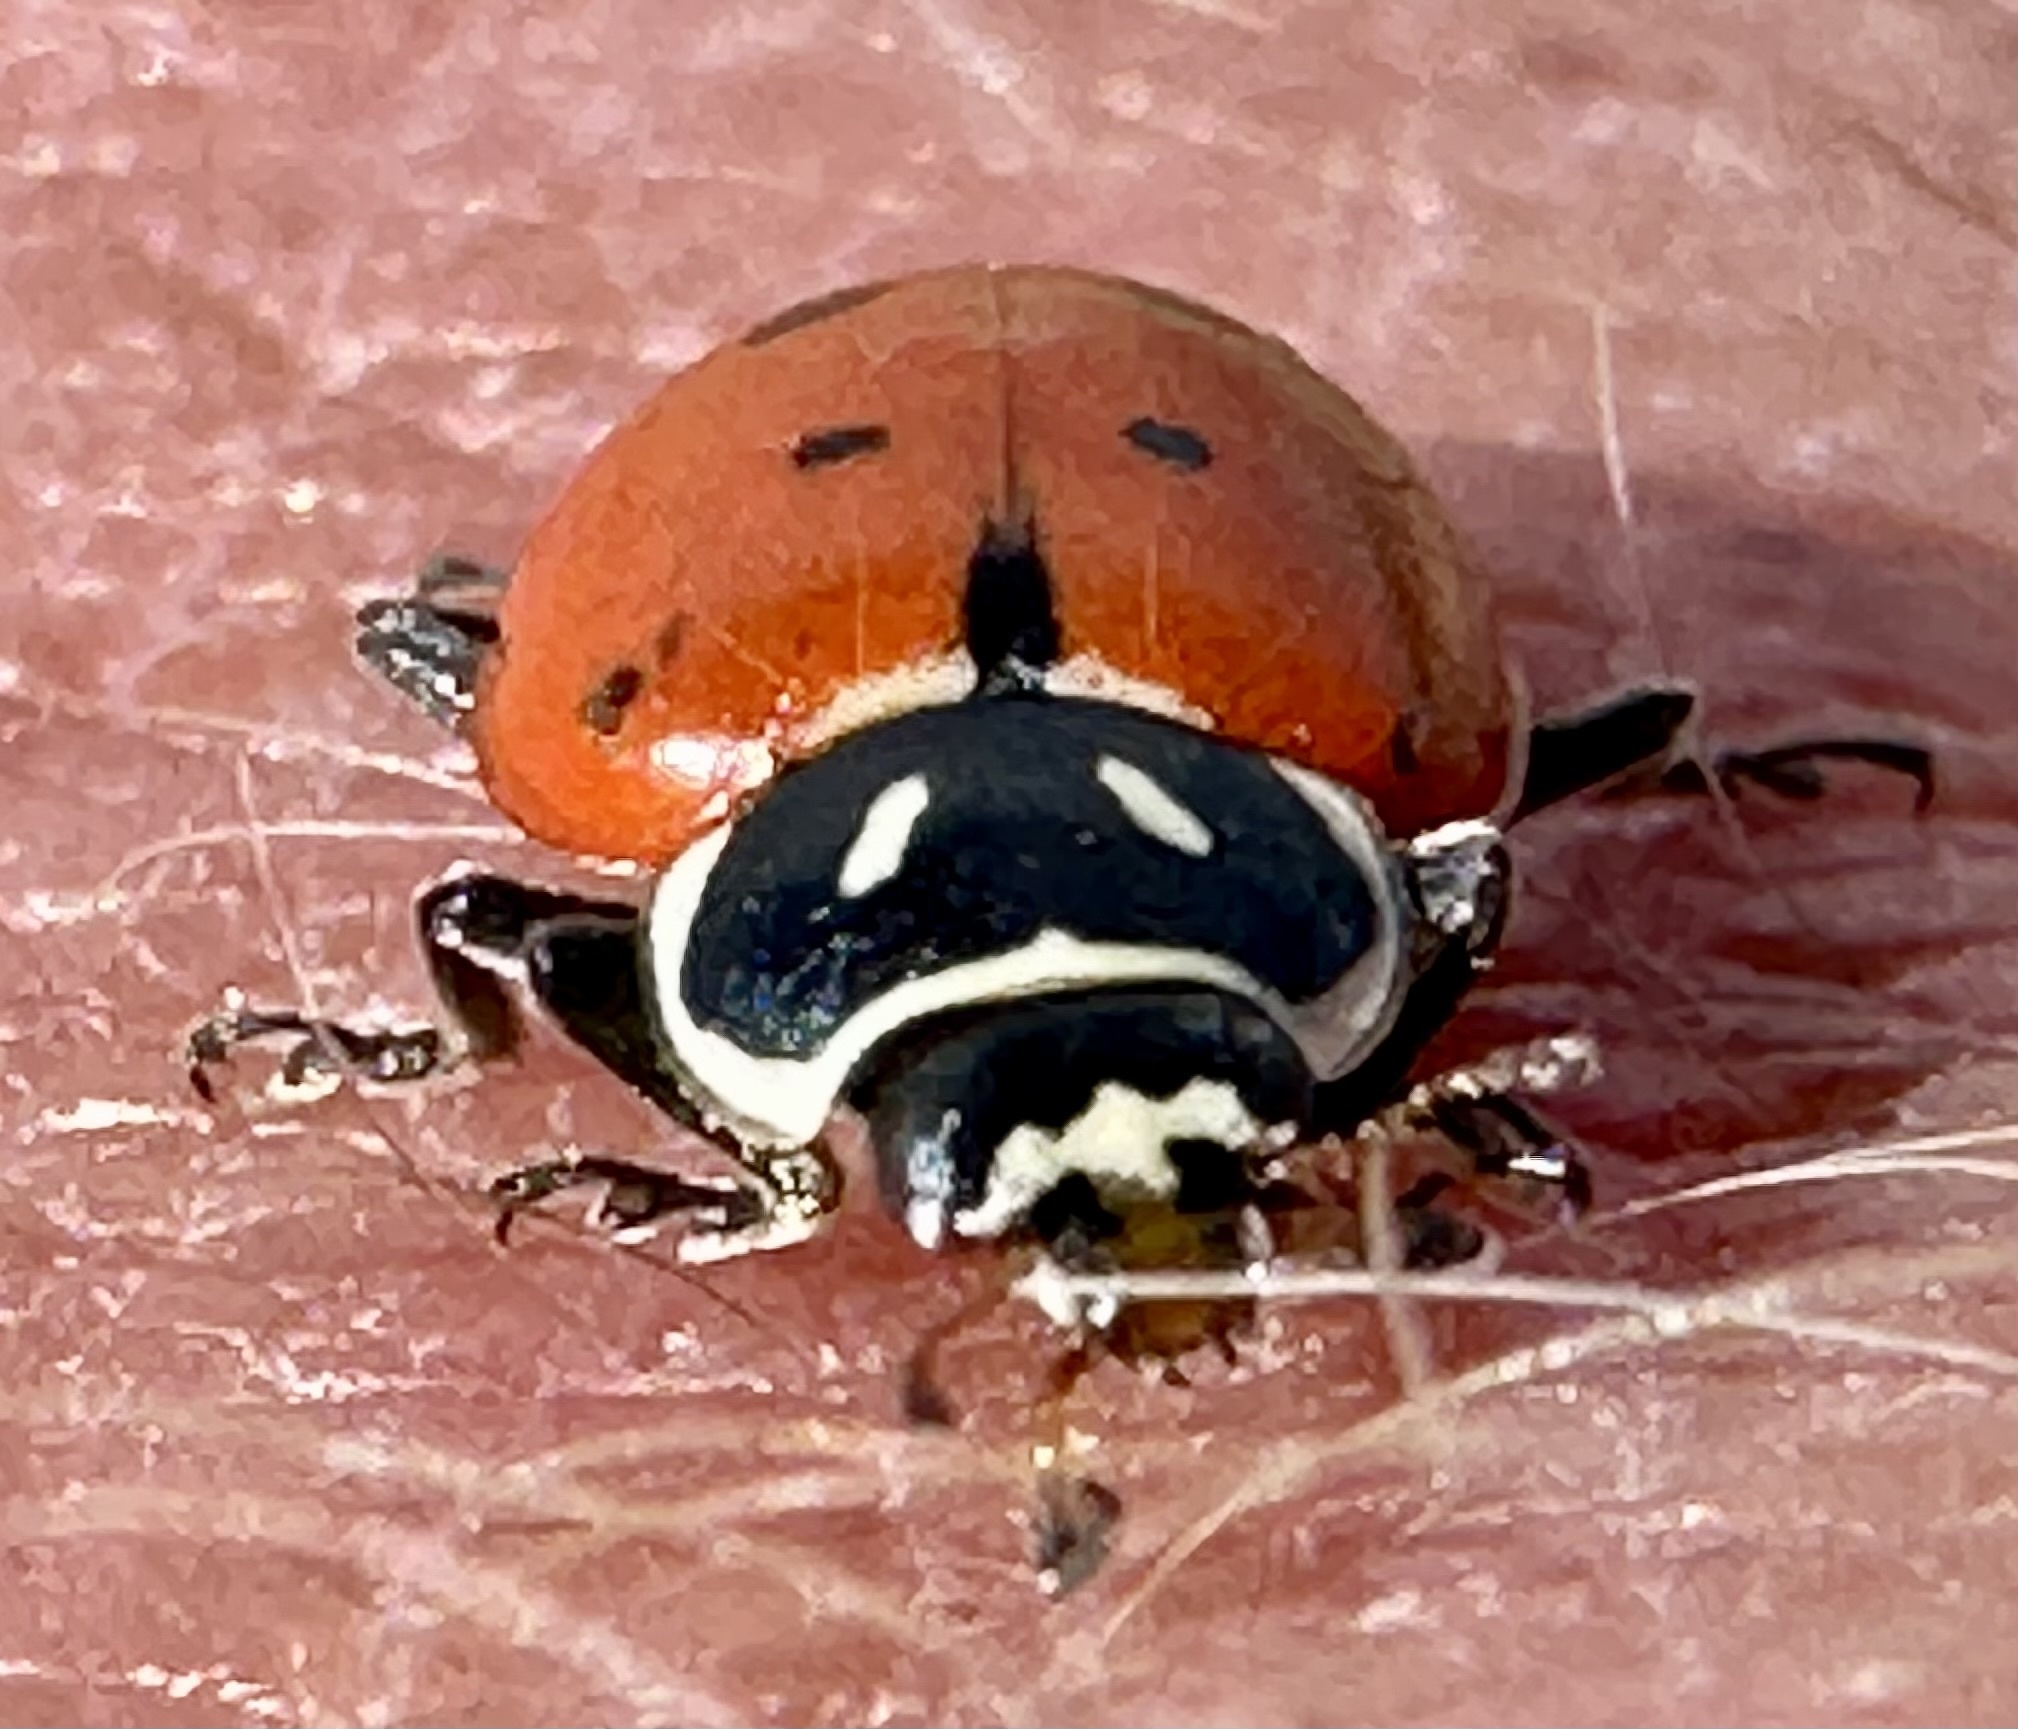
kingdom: Animalia
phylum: Arthropoda
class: Insecta
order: Coleoptera
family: Coccinellidae
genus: Hippodamia
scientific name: Hippodamia convergens
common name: Convergent lady beetle
